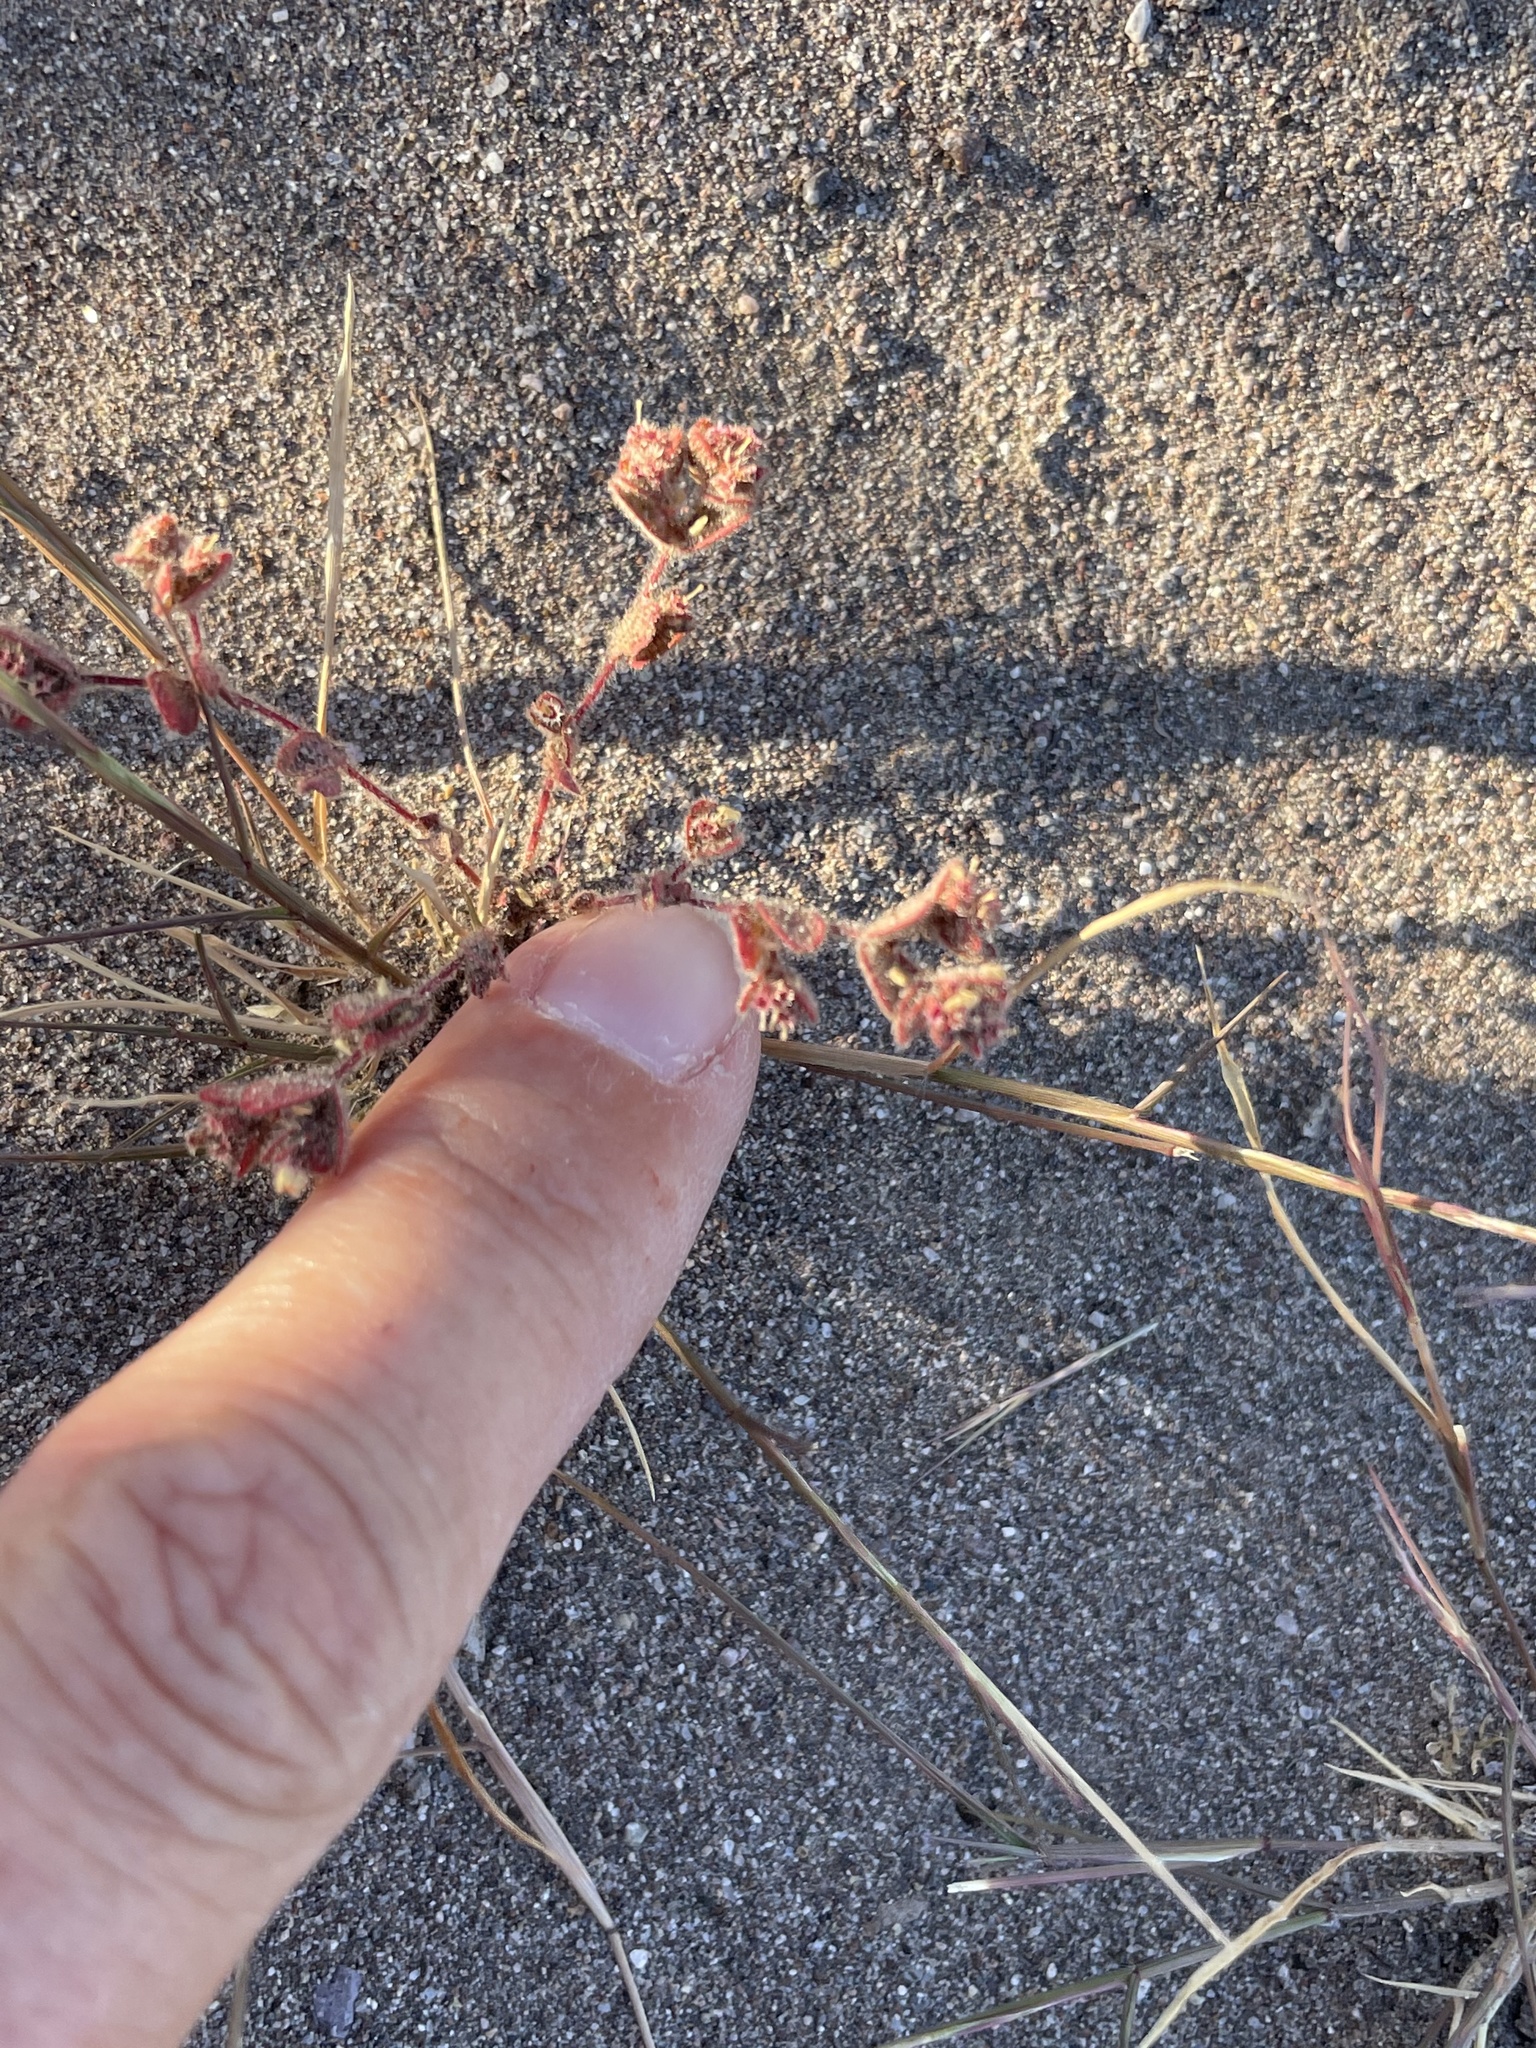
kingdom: Plantae
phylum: Tracheophyta
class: Magnoliopsida
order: Malpighiales
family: Euphorbiaceae
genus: Euphorbia
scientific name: Euphorbia setiloba
